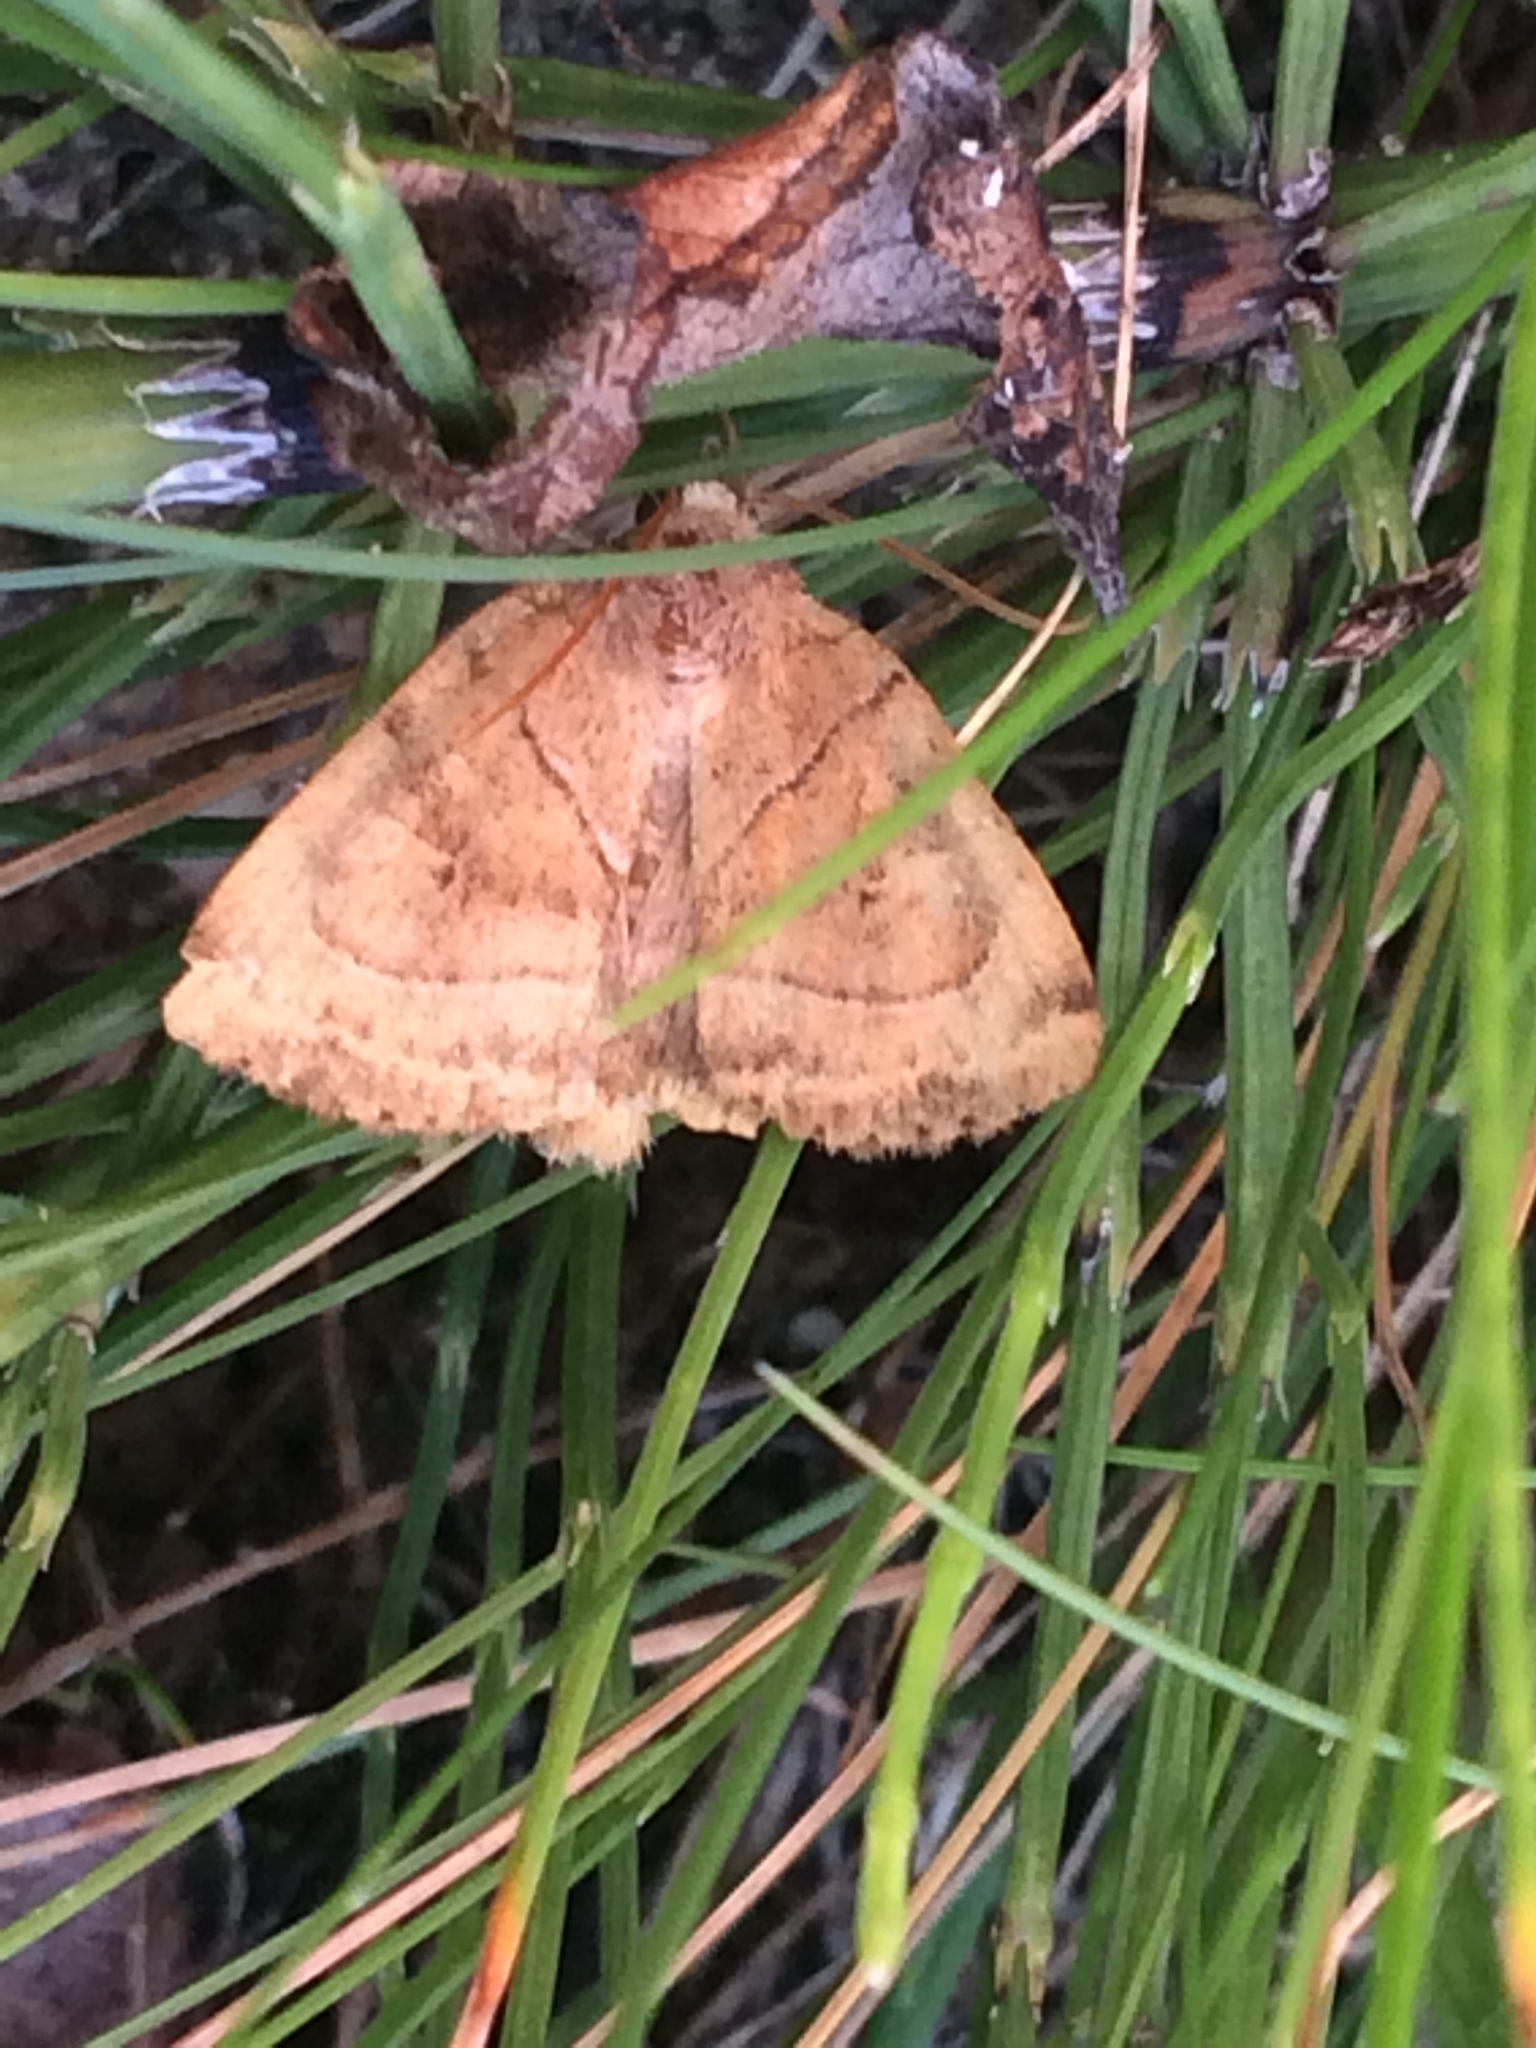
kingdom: Animalia
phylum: Arthropoda
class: Insecta
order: Lepidoptera
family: Noctuidae
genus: Cosmia
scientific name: Cosmia trapezina
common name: Dun-bar
